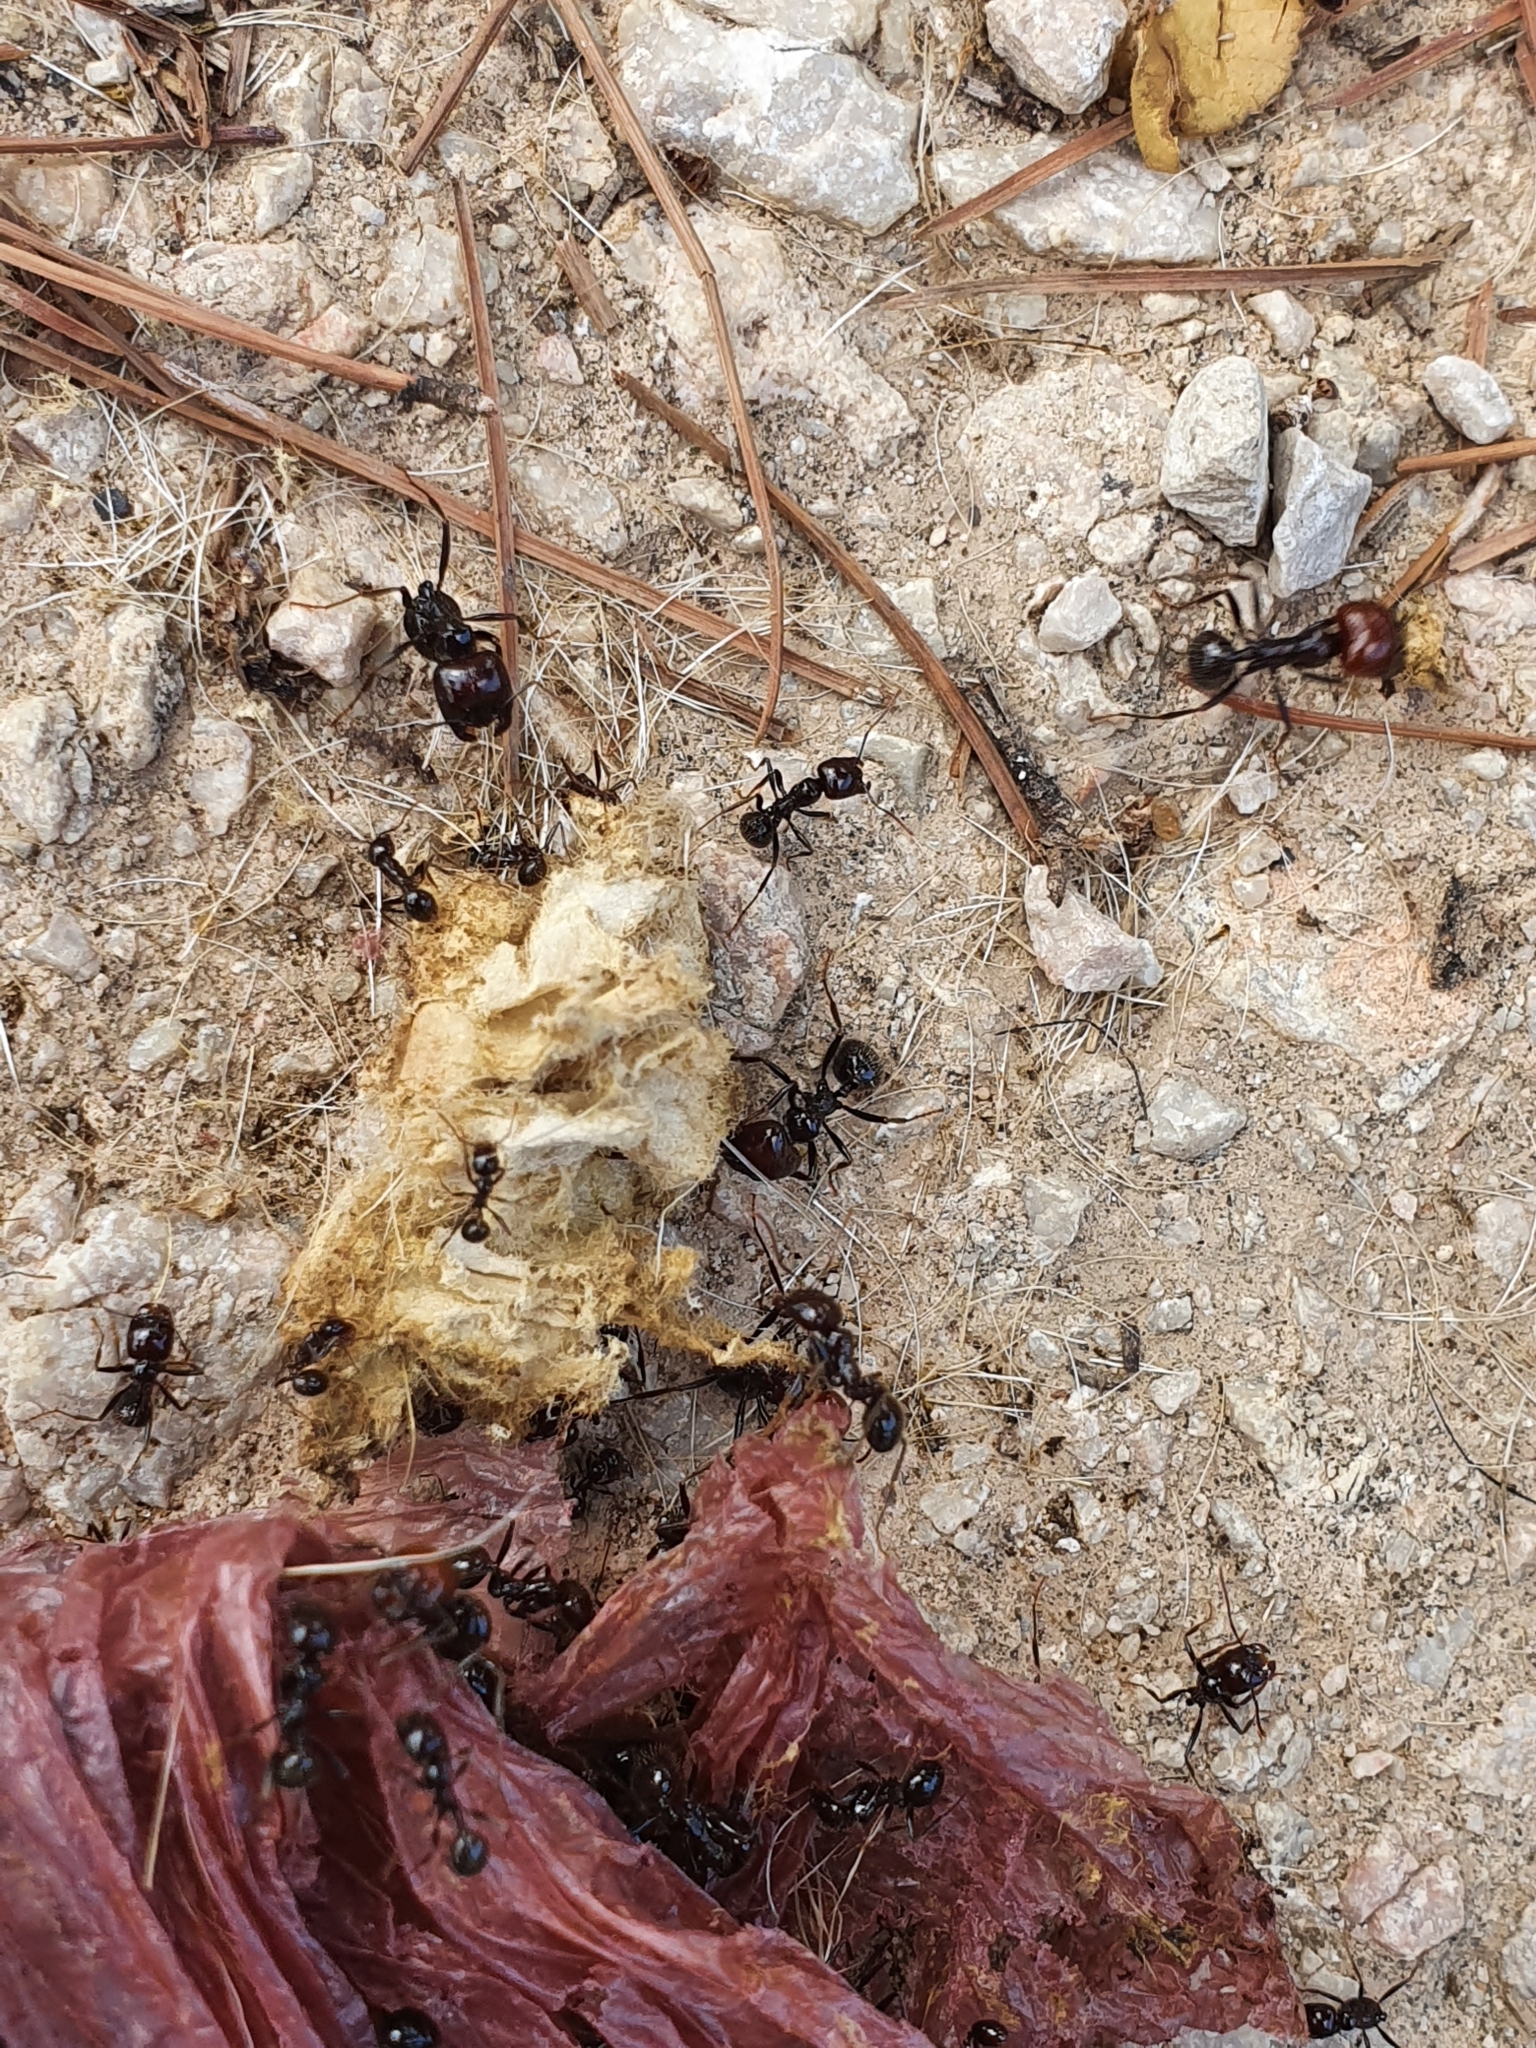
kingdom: Animalia
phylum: Arthropoda
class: Insecta
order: Hymenoptera
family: Formicidae
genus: Messor
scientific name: Messor barbarus
